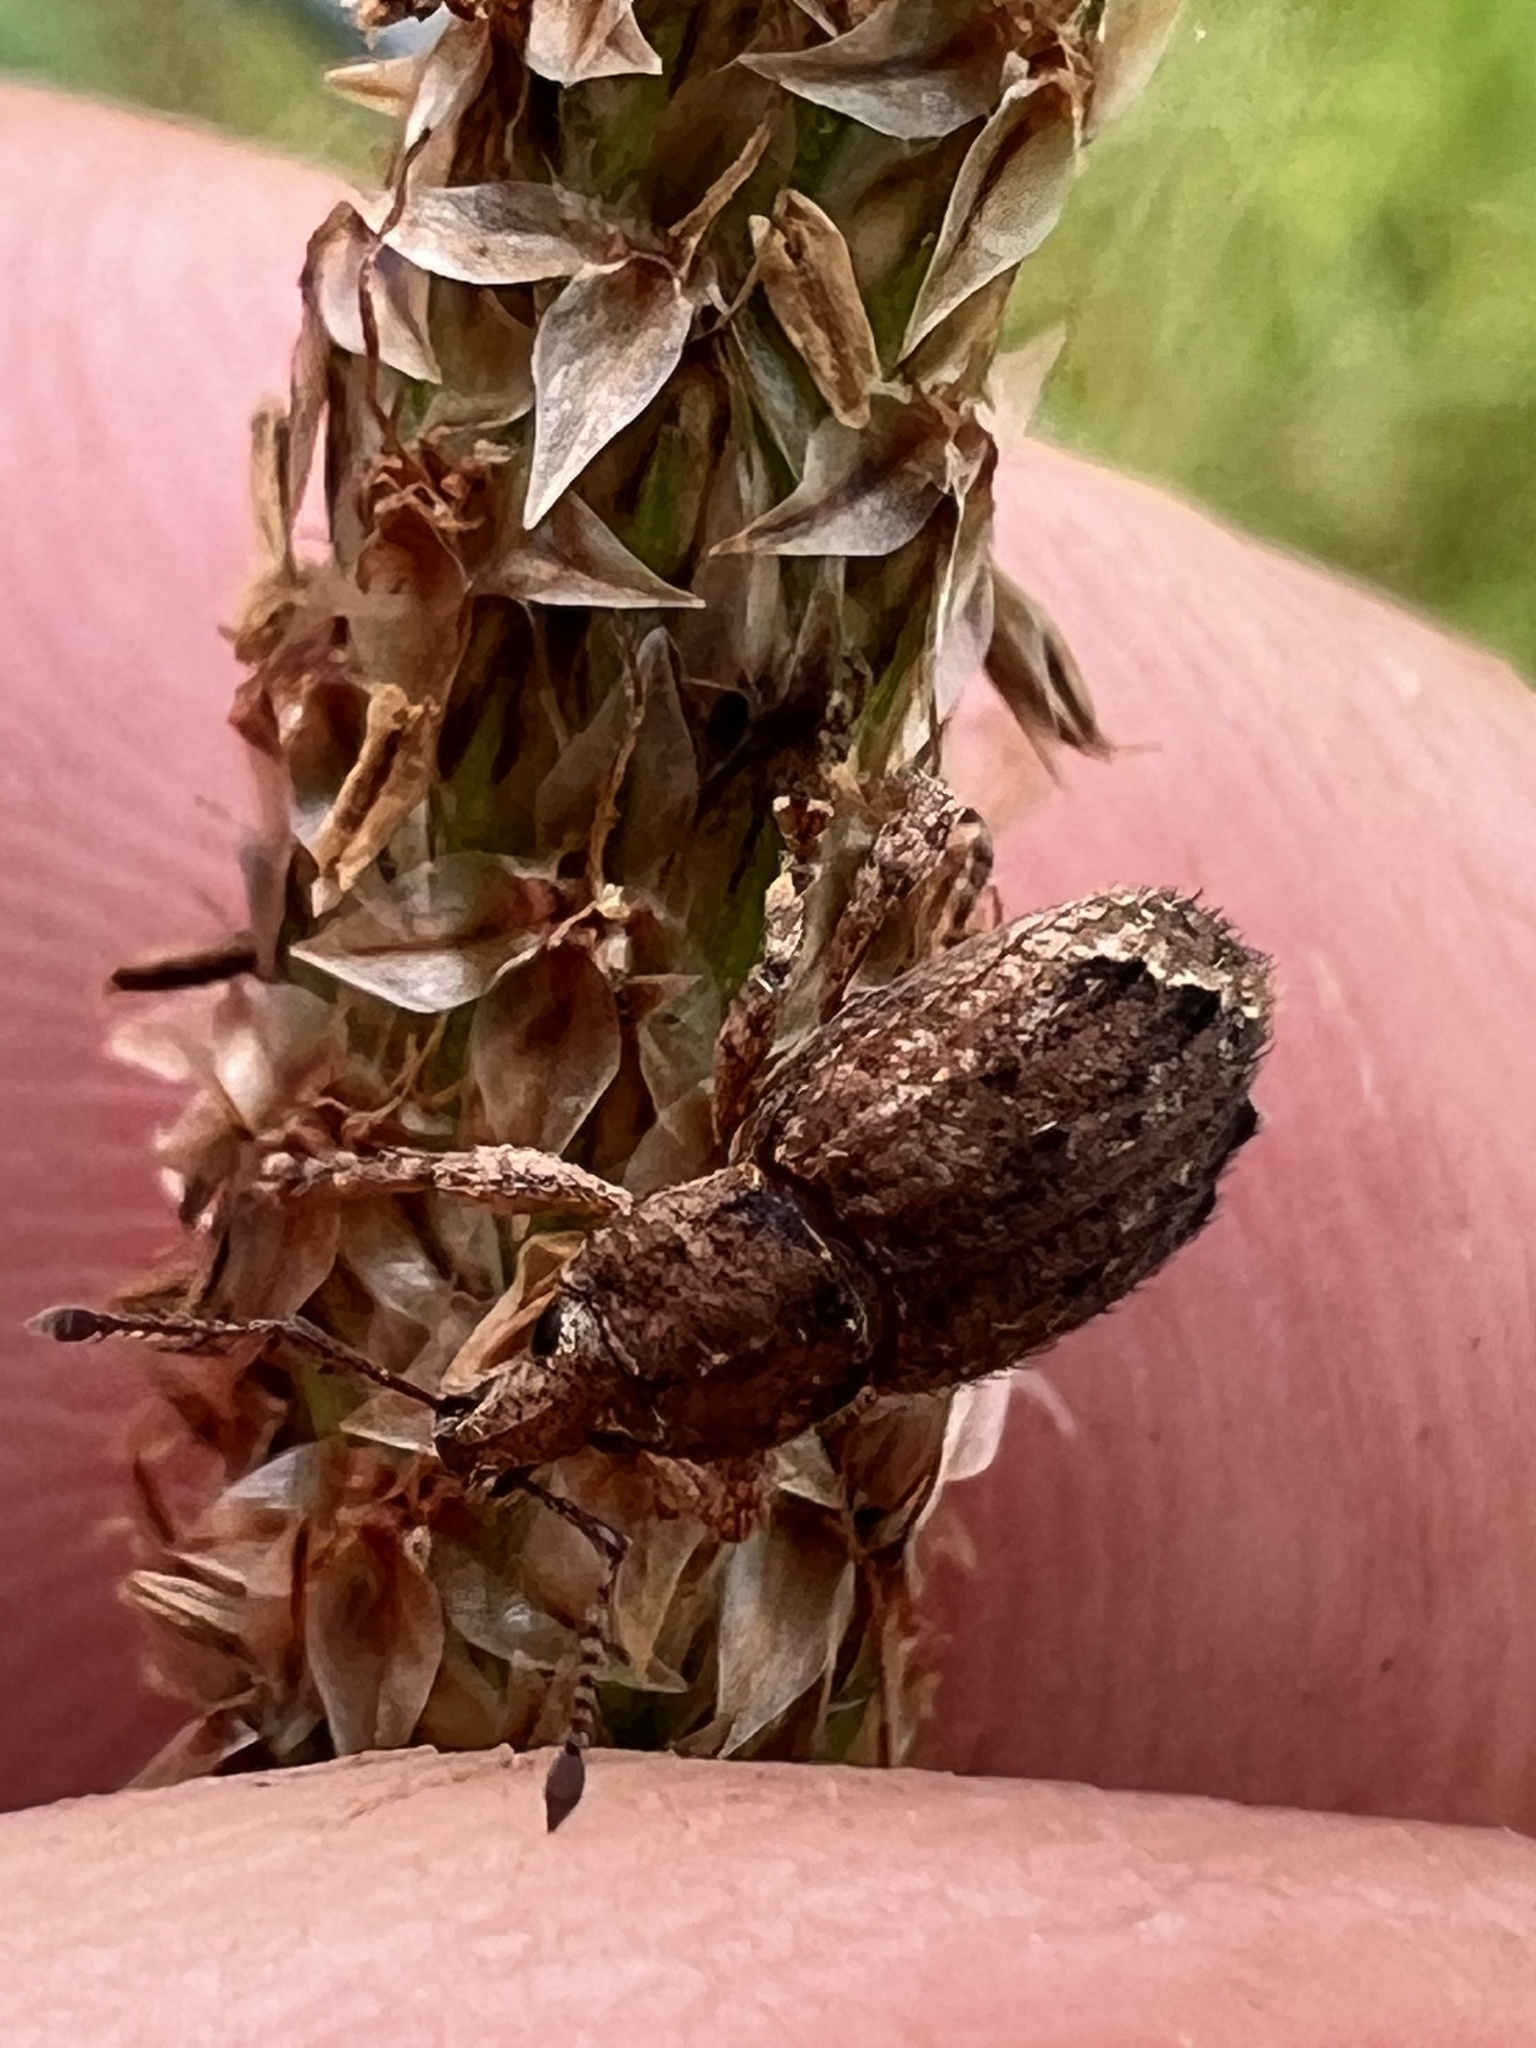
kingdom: Animalia
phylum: Arthropoda
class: Insecta
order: Coleoptera
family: Curculionidae
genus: Chalepistes
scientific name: Chalepistes compressus
